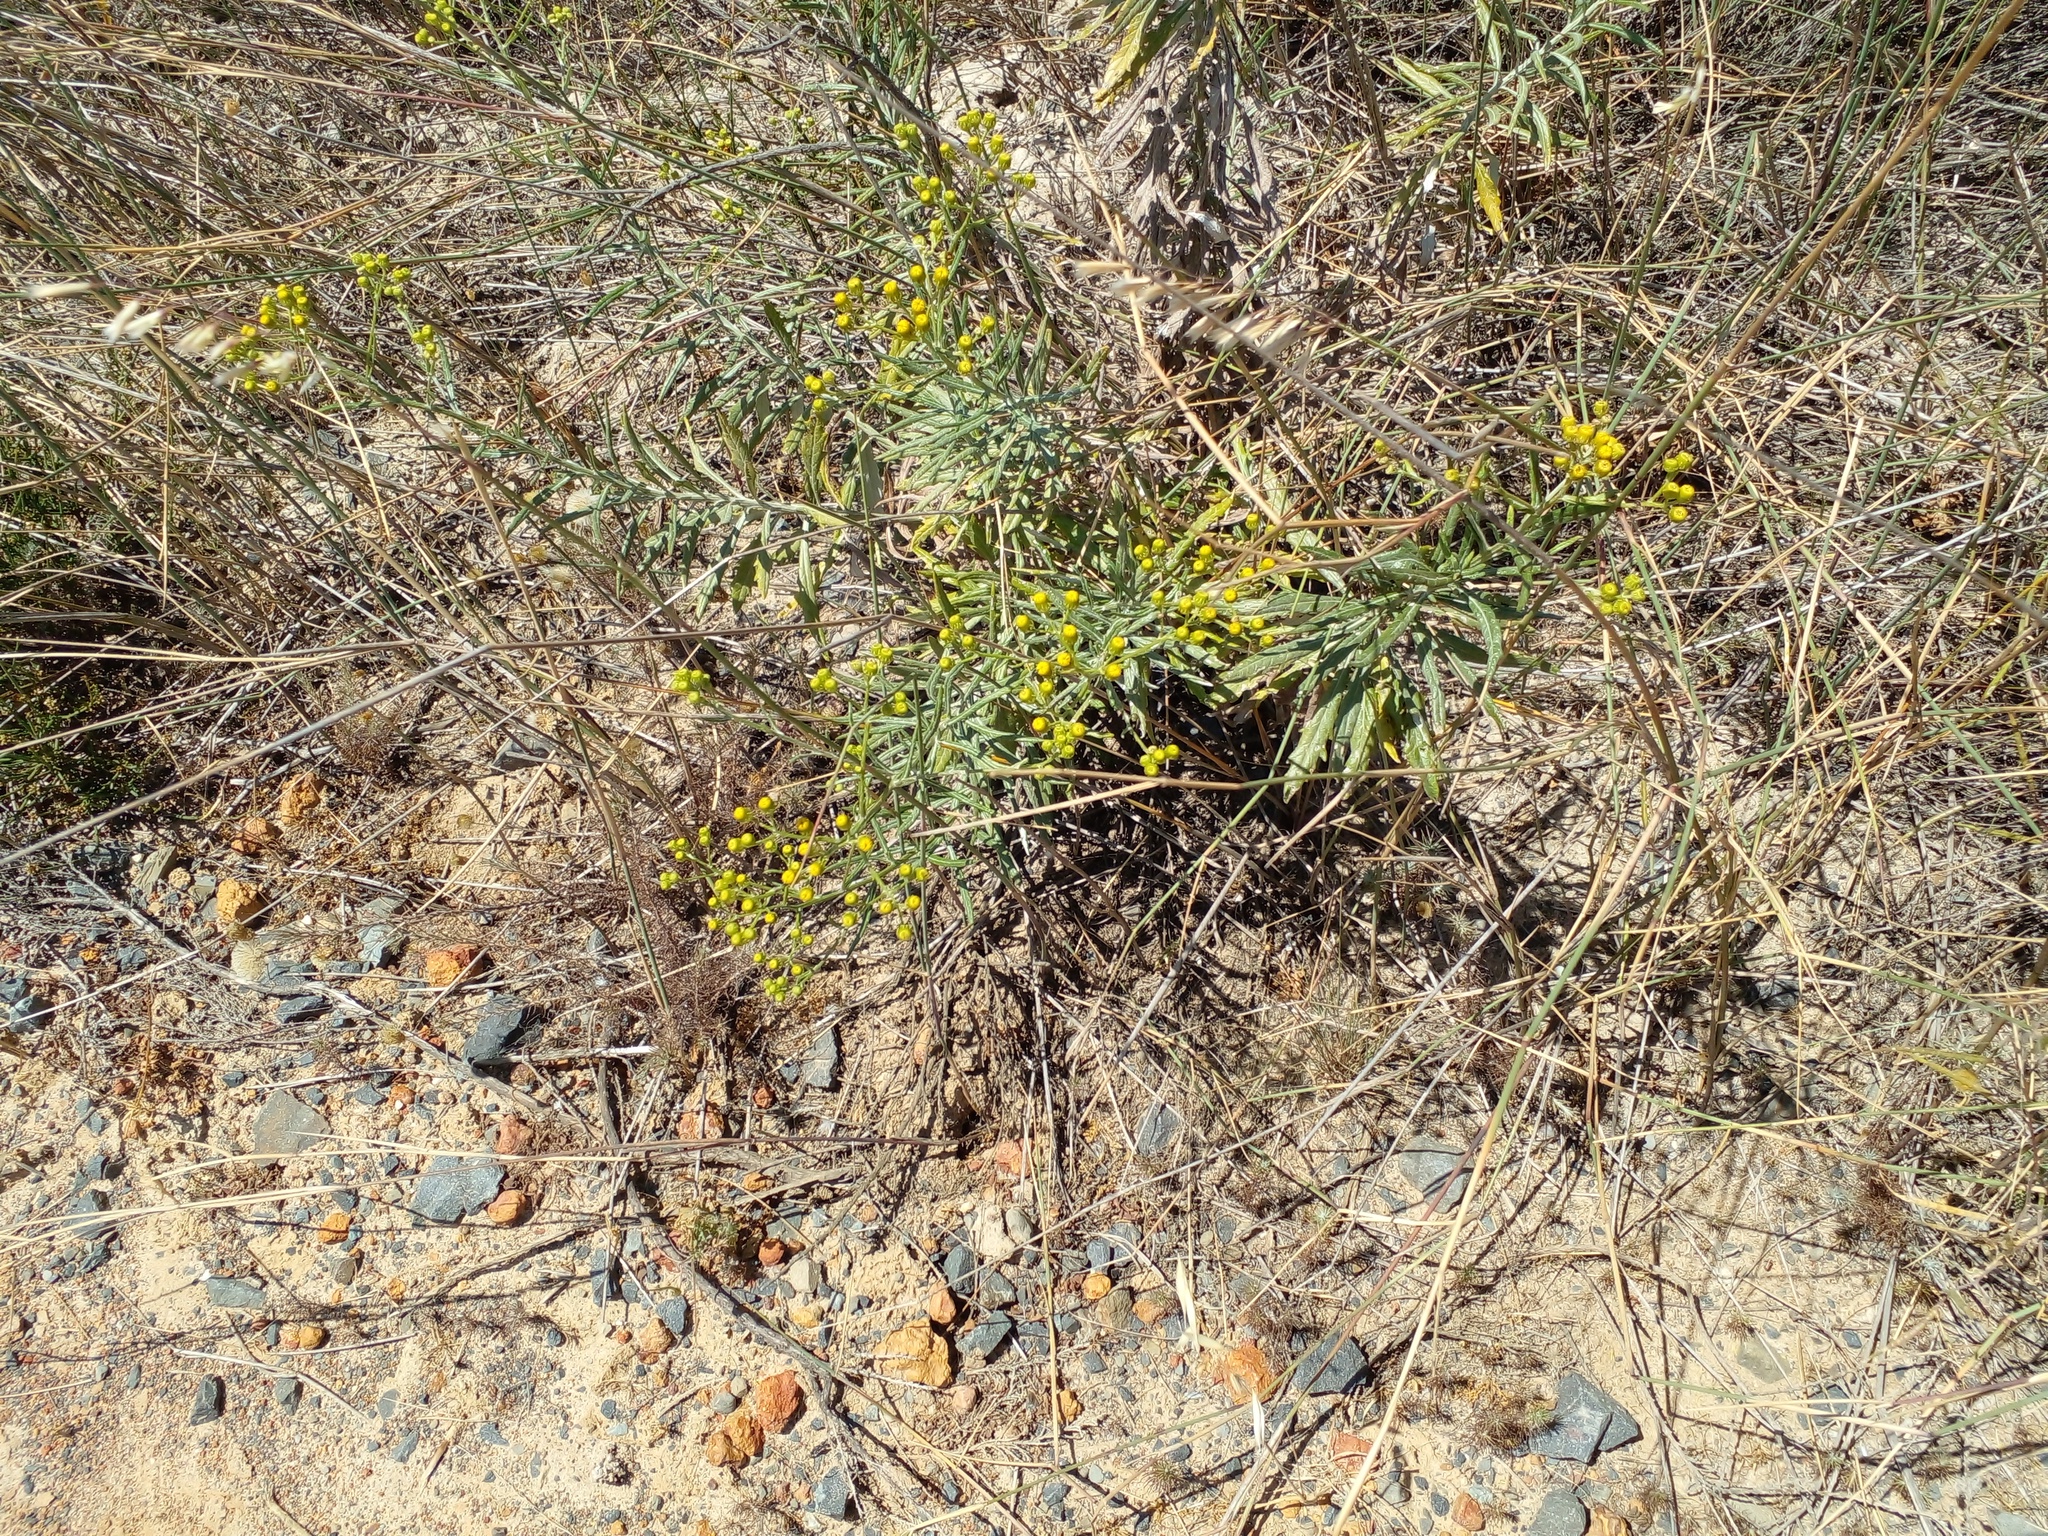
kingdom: Plantae
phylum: Tracheophyta
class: Magnoliopsida
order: Asterales
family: Asteraceae
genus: Senecio
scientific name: Senecio pterophorus
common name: Shoddy ragwort
